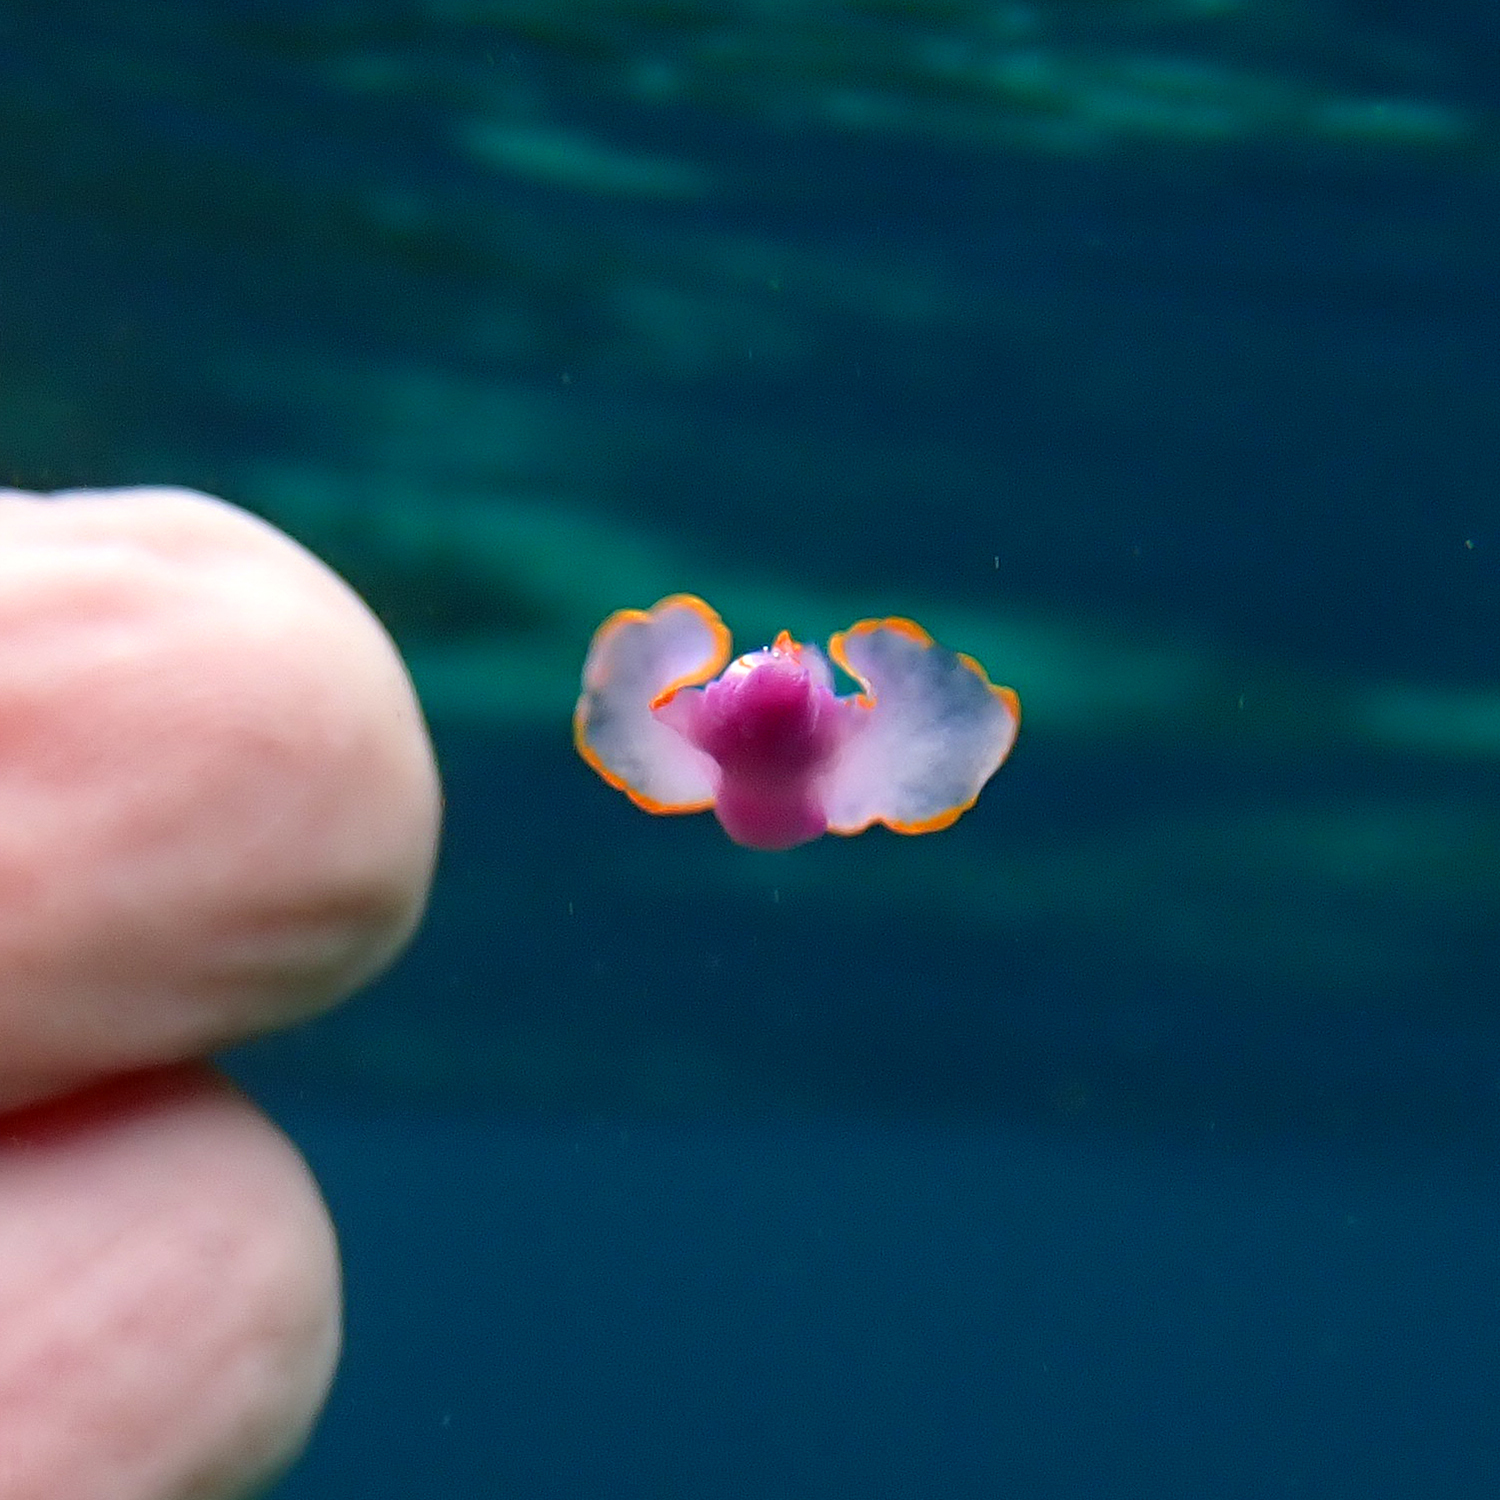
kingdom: Animalia
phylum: Mollusca
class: Gastropoda
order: Cephalaspidea
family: Gastropteridae
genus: Sagaminopteron
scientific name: Sagaminopteron ornatum
